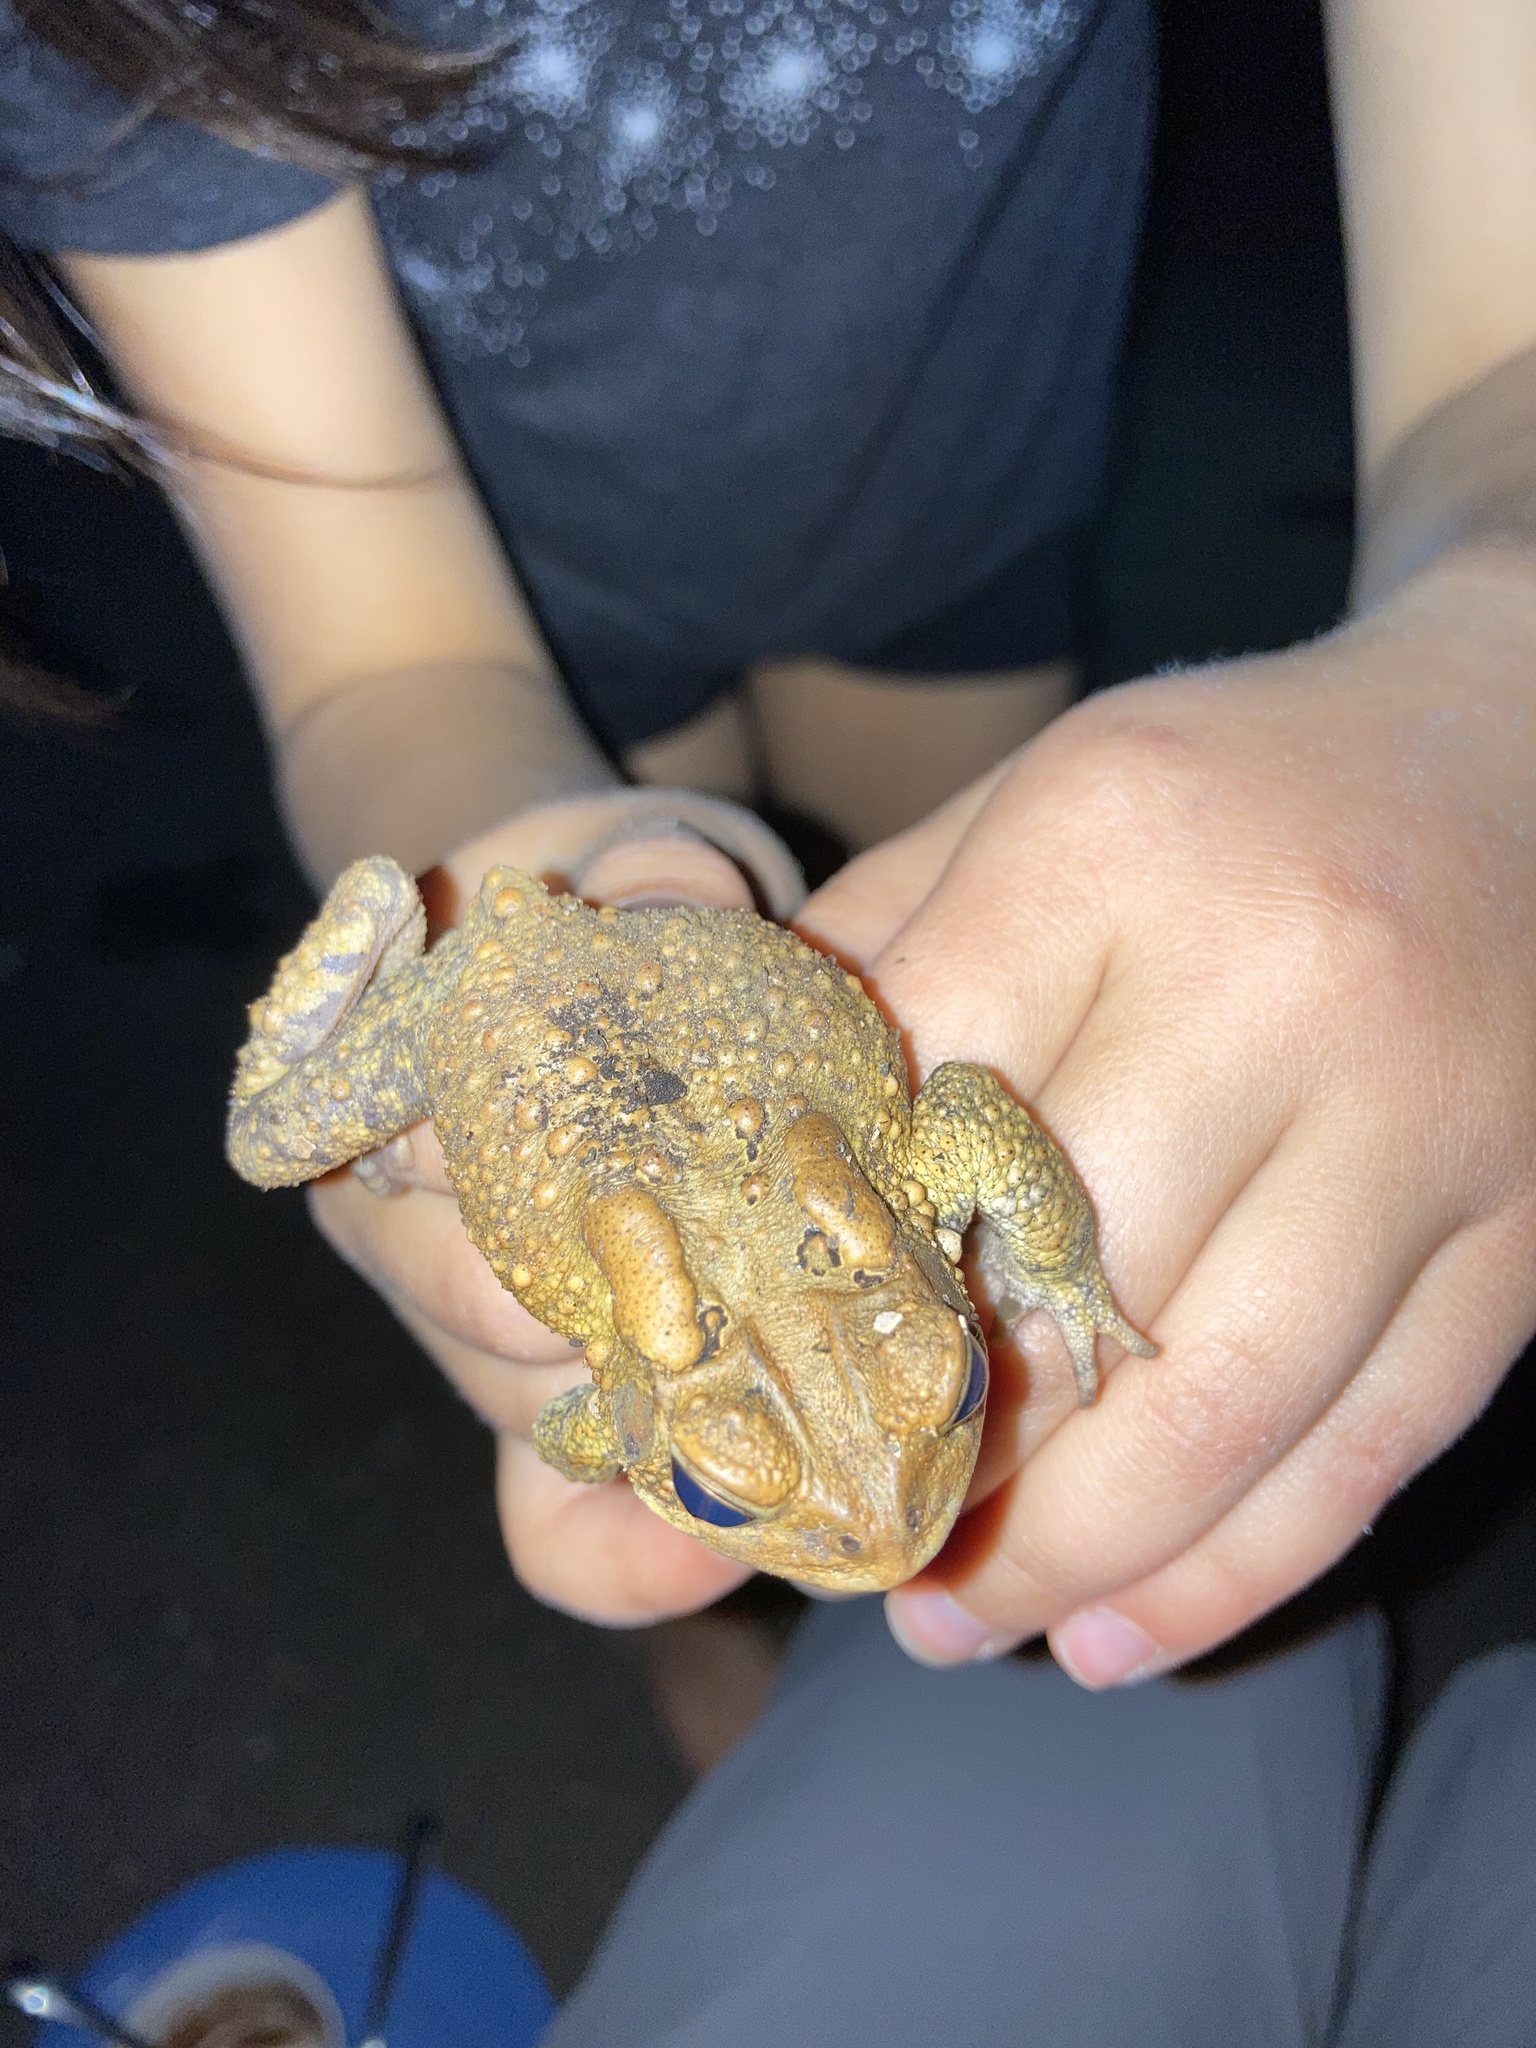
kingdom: Animalia
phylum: Chordata
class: Amphibia
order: Anura
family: Bufonidae
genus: Anaxyrus
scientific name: Anaxyrus americanus
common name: American toad
